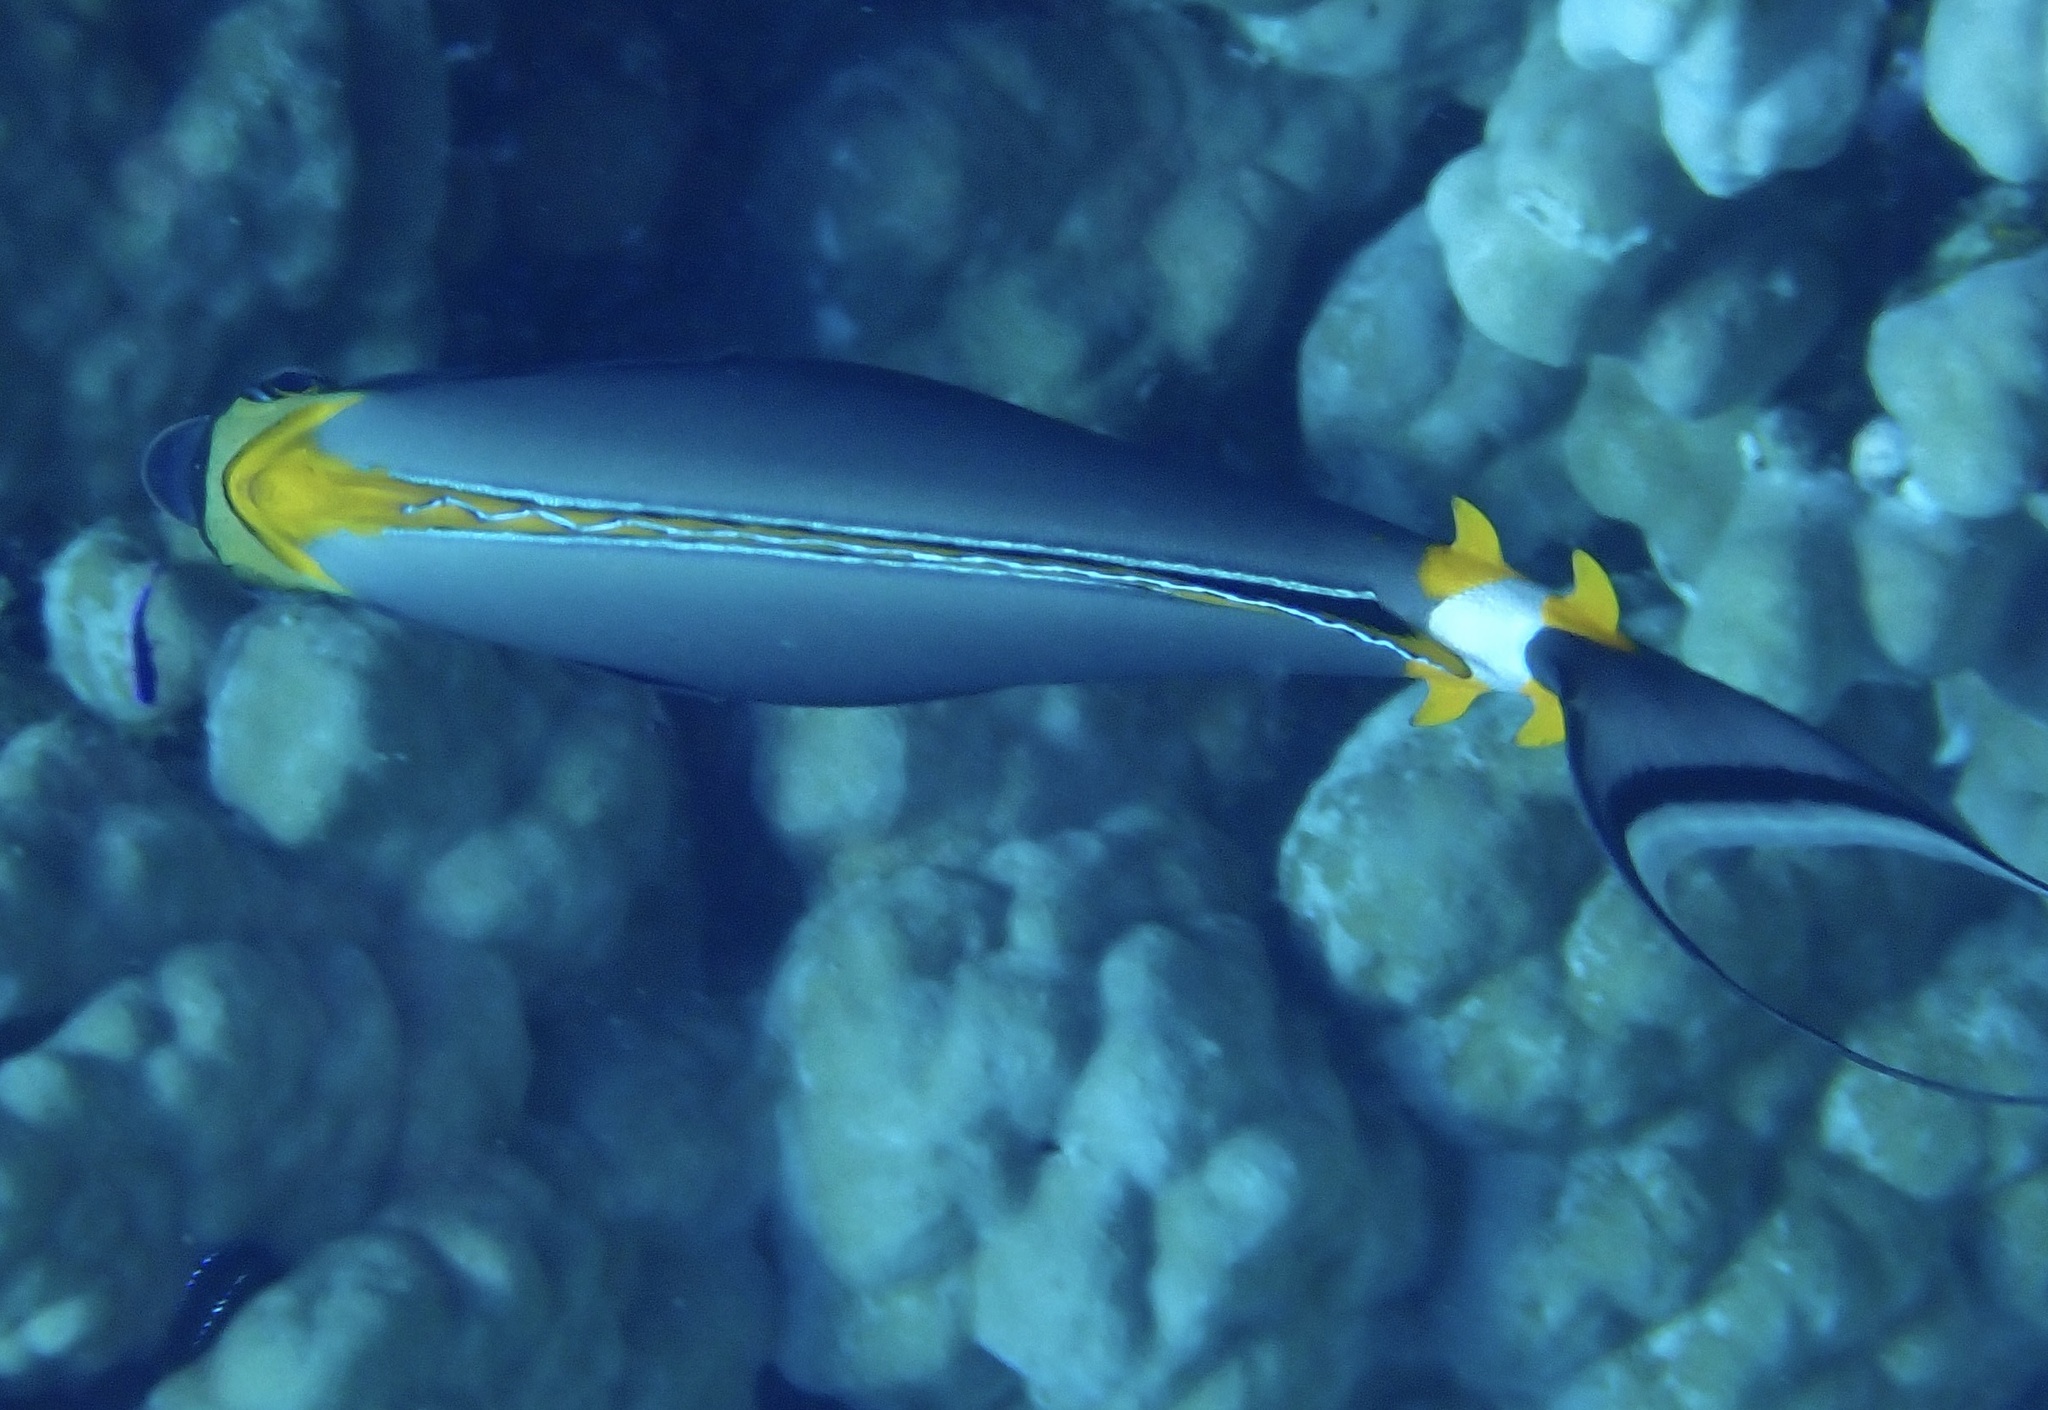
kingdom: Animalia
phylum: Chordata
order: Perciformes
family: Acanthuridae
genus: Naso
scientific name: Naso elegans
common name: Orangespine unicornfish
